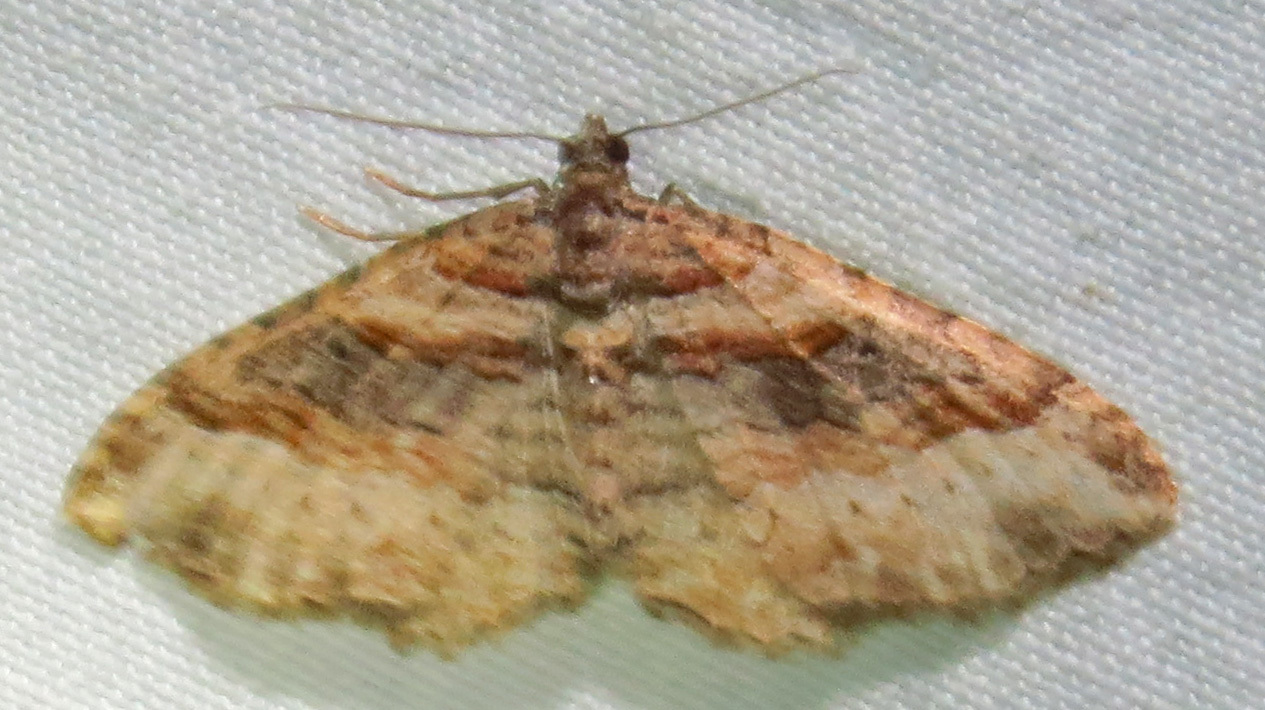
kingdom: Animalia
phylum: Arthropoda
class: Insecta
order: Lepidoptera
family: Geometridae
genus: Costaconvexa
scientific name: Costaconvexa centrostrigaria
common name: Bent-line carpet
